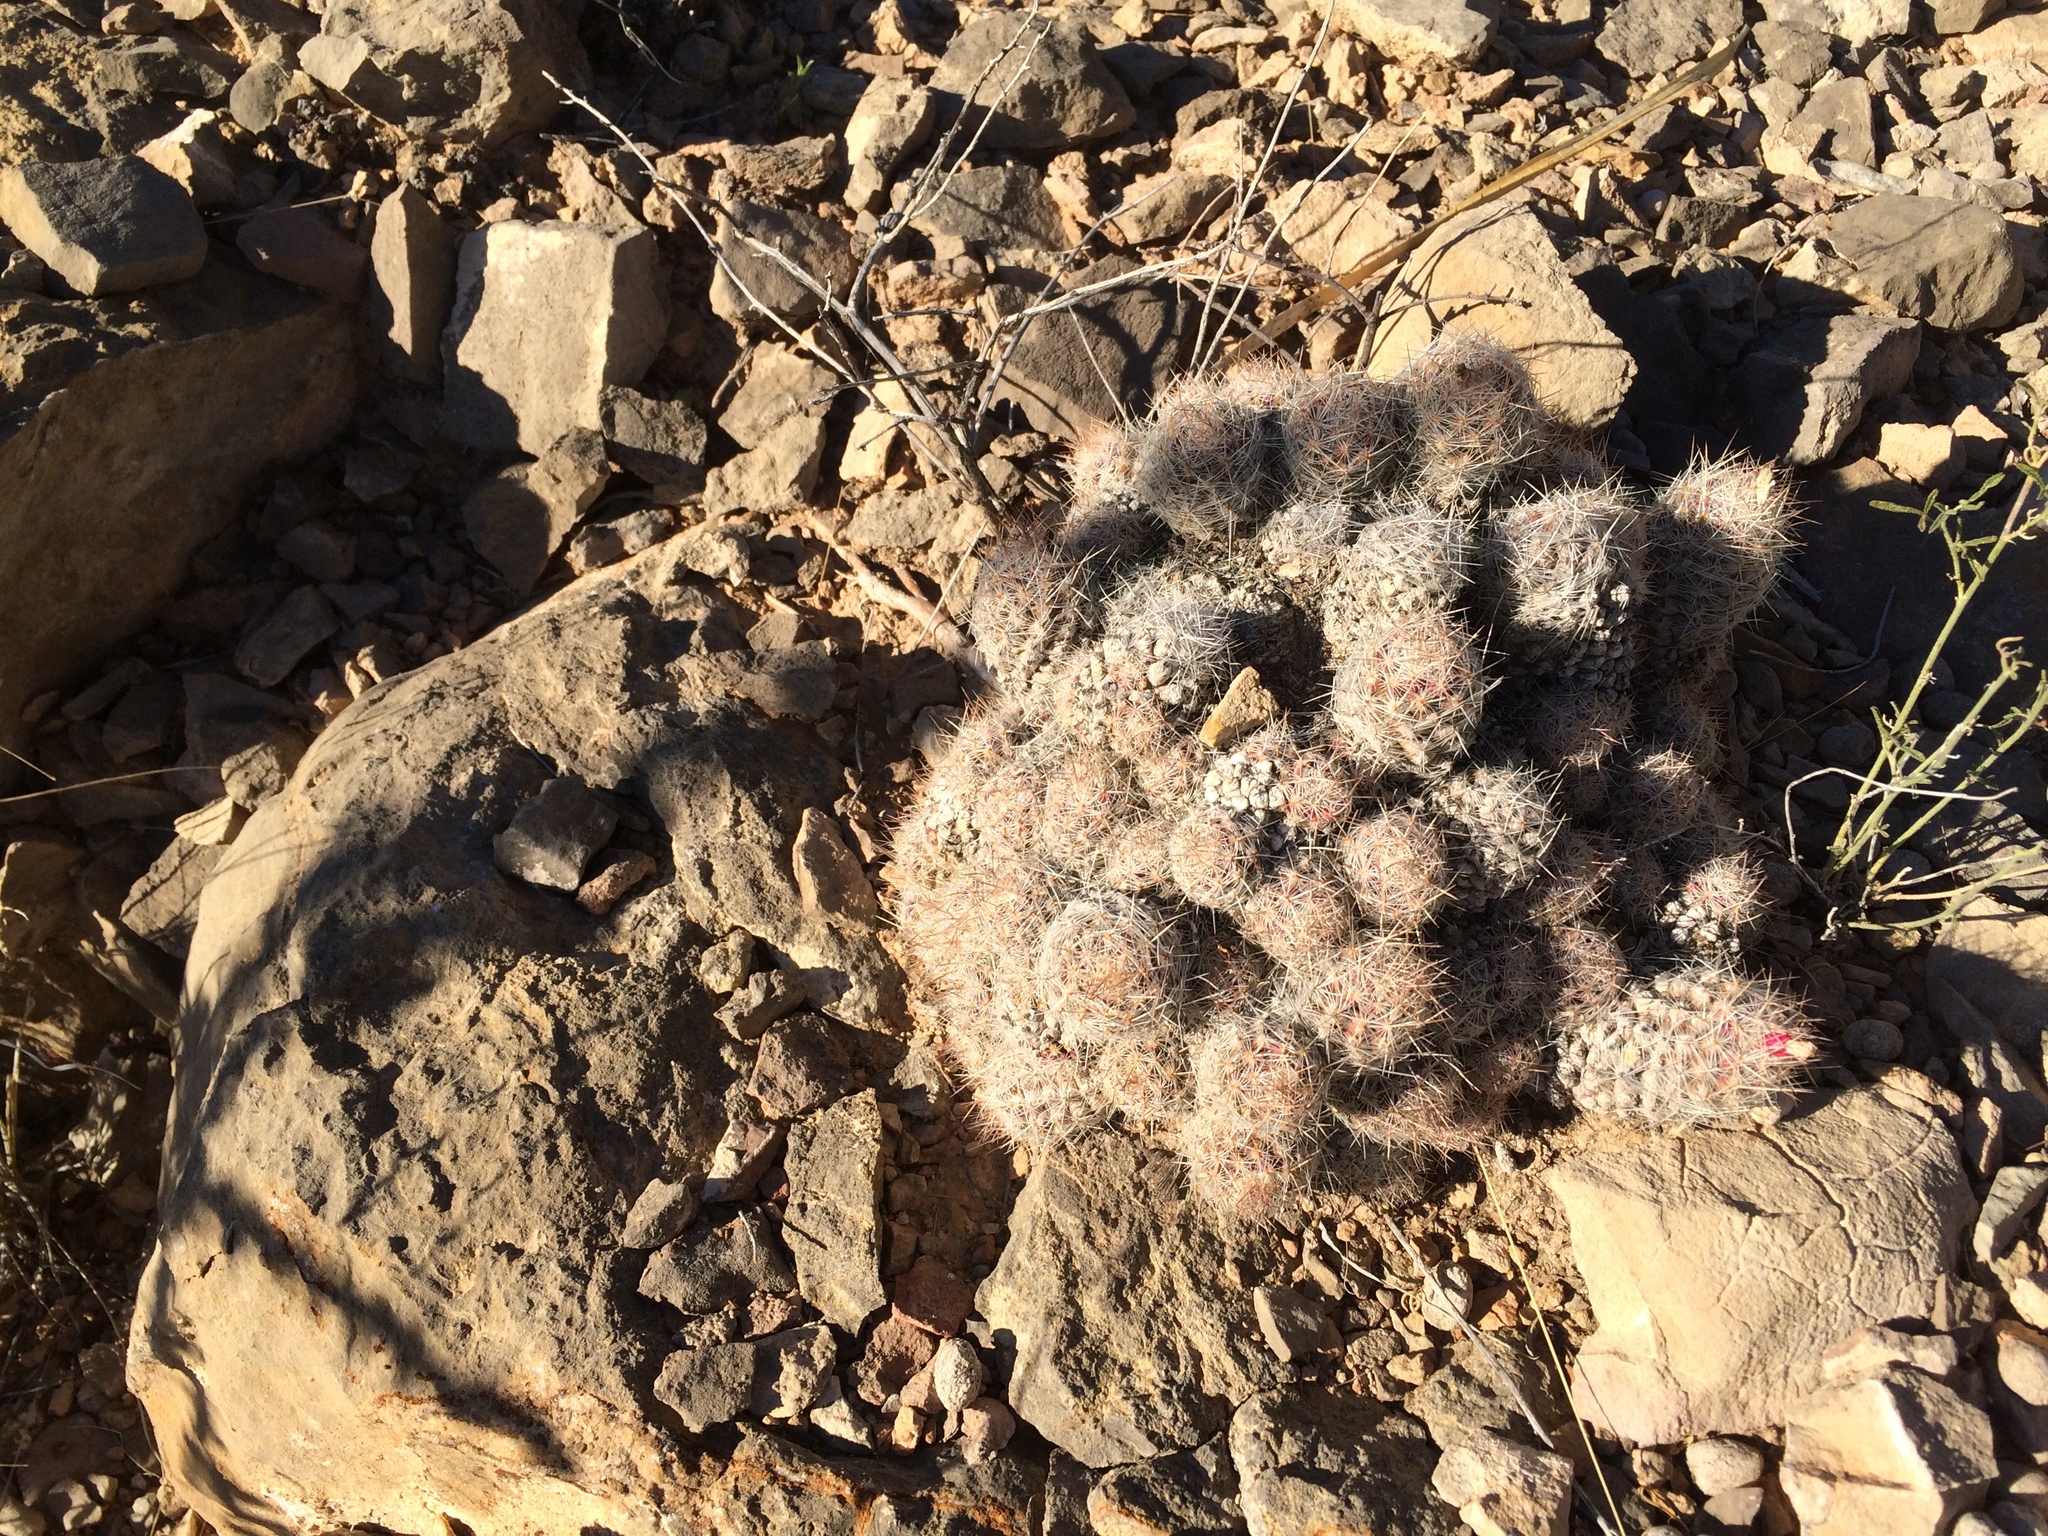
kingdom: Plantae
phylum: Tracheophyta
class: Magnoliopsida
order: Caryophyllales
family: Cactaceae
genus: Pelecyphora
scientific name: Pelecyphora tuberculosa
